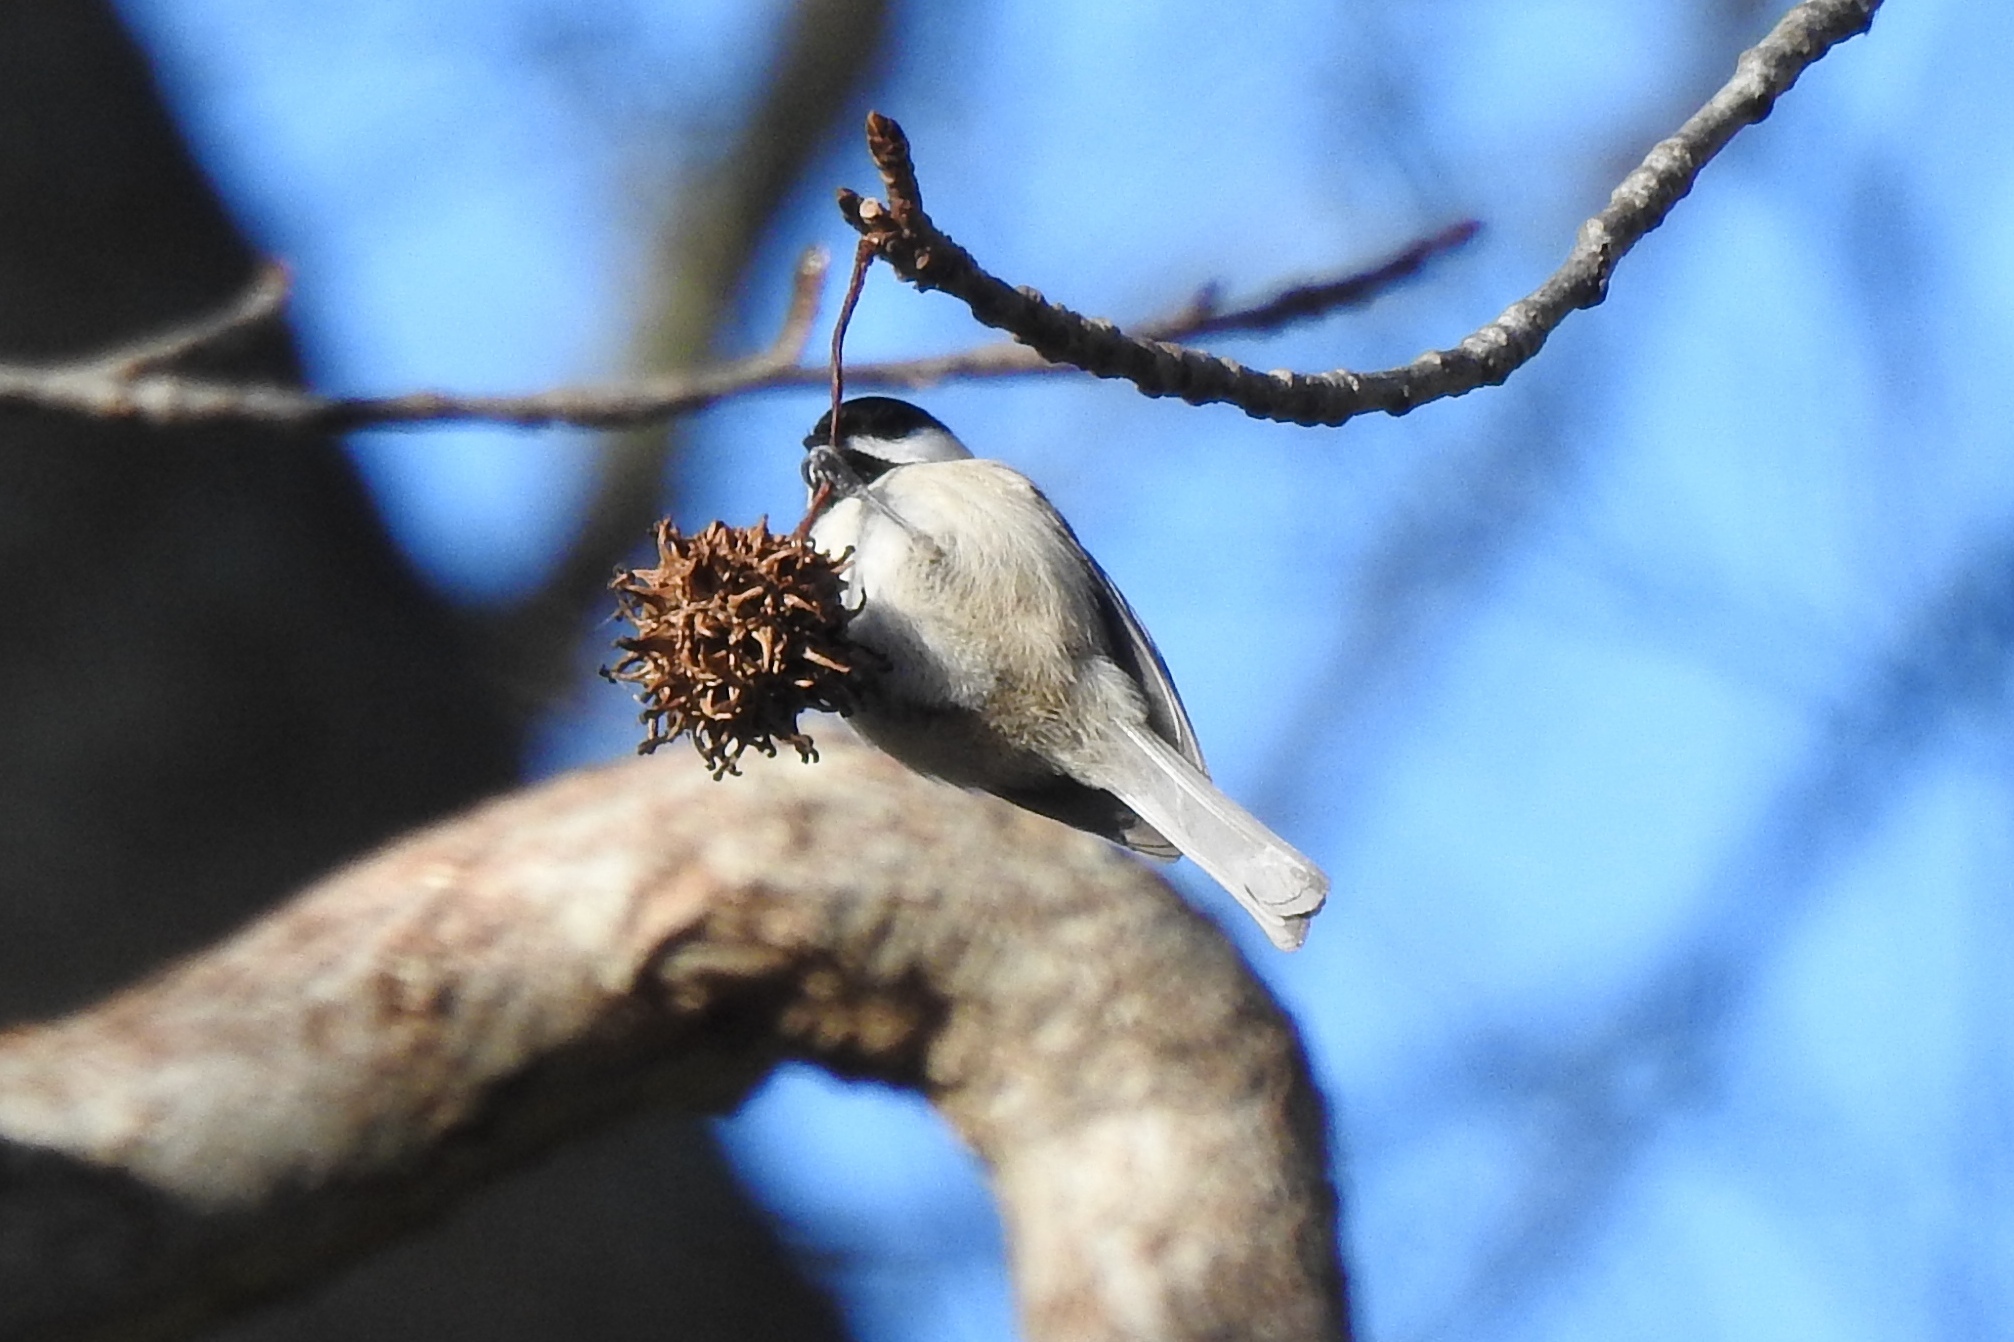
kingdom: Animalia
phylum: Chordata
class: Aves
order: Passeriformes
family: Paridae
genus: Poecile
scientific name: Poecile carolinensis
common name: Carolina chickadee
